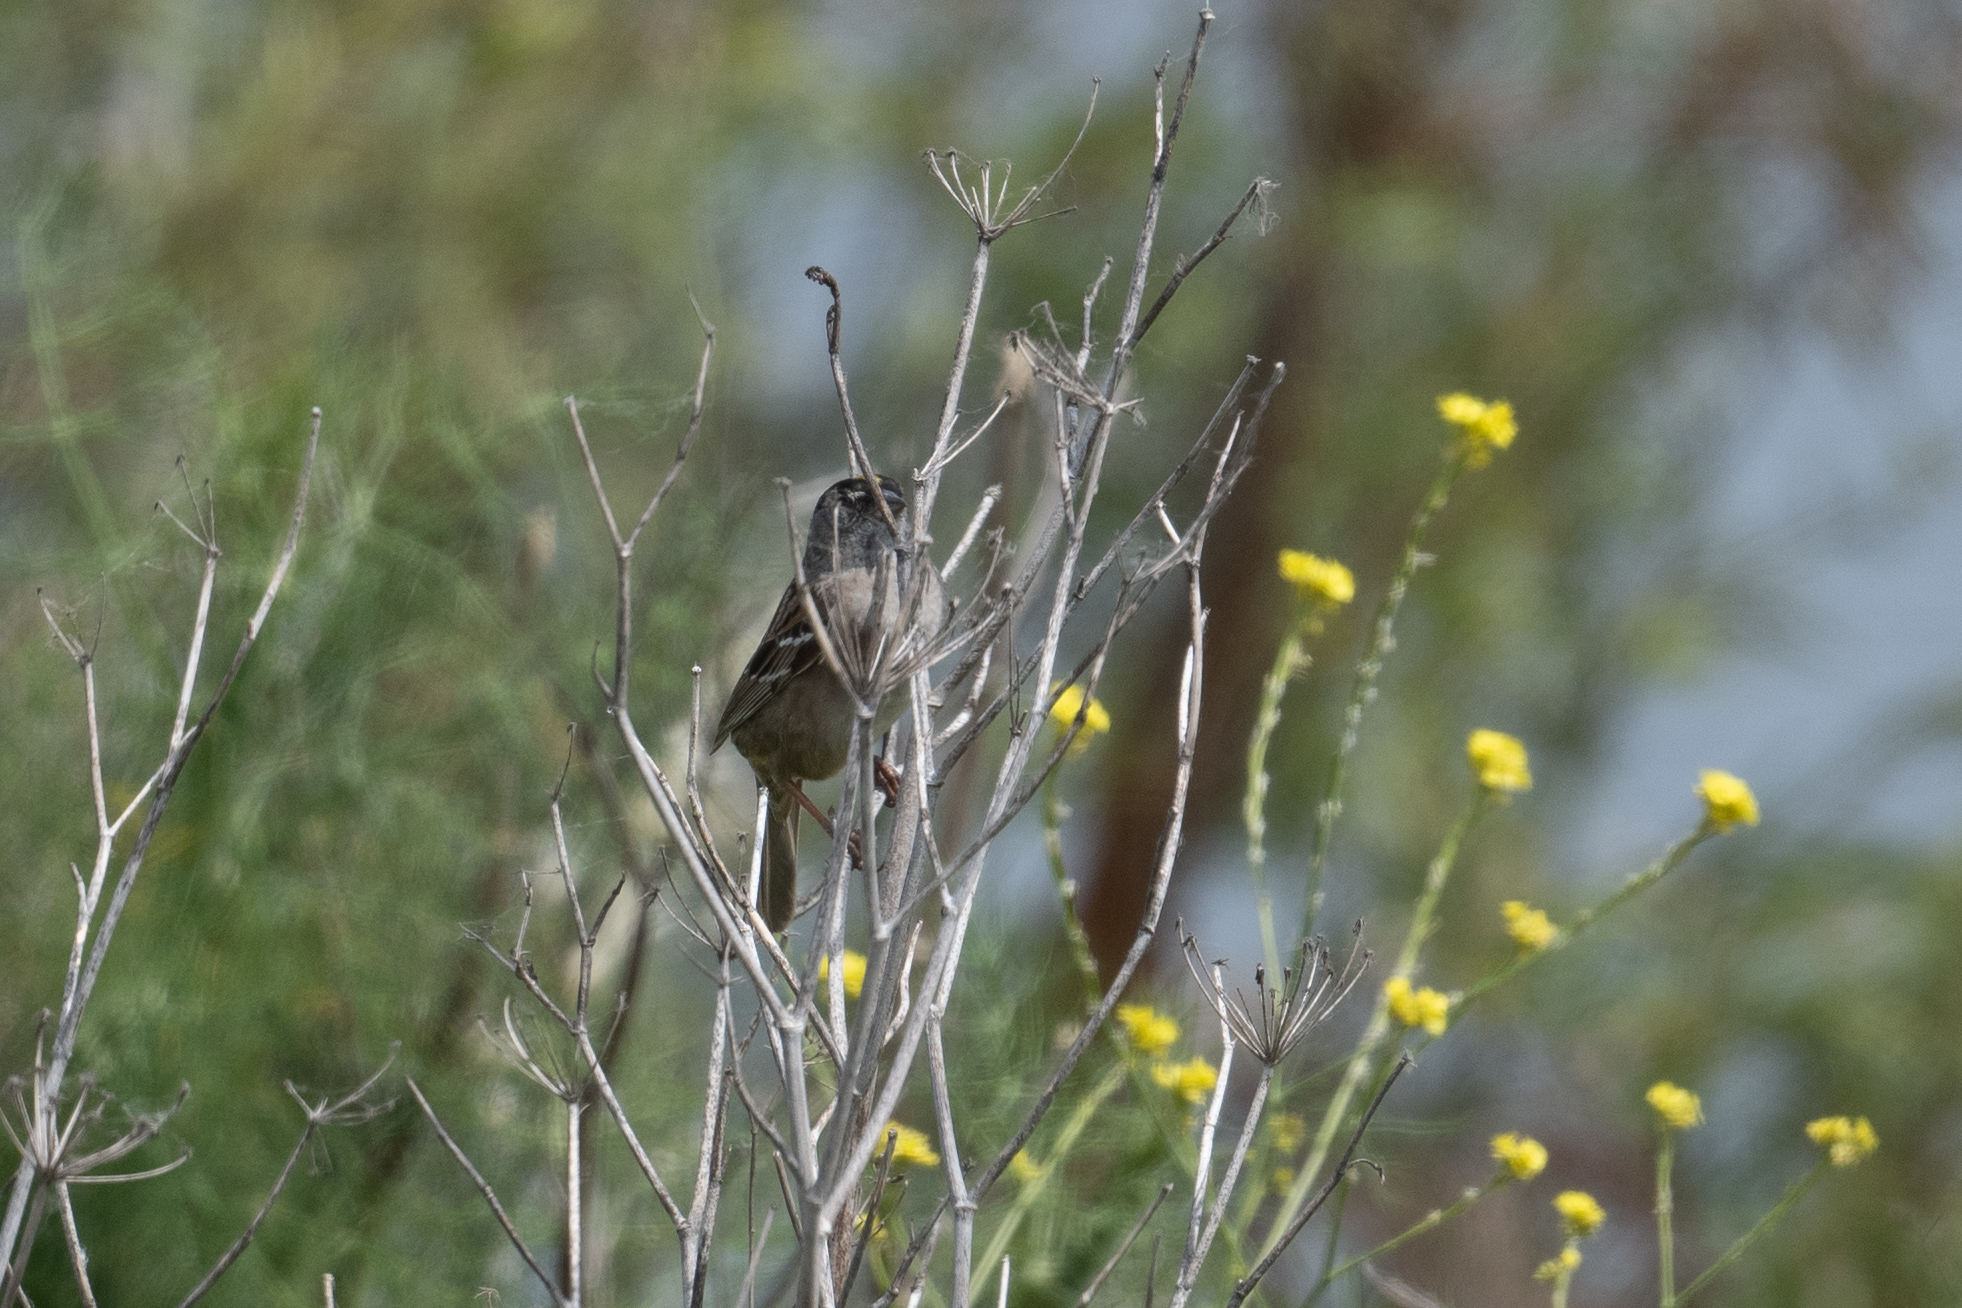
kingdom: Animalia
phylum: Chordata
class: Aves
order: Passeriformes
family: Passerellidae
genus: Zonotrichia
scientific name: Zonotrichia atricapilla
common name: Golden-crowned sparrow
